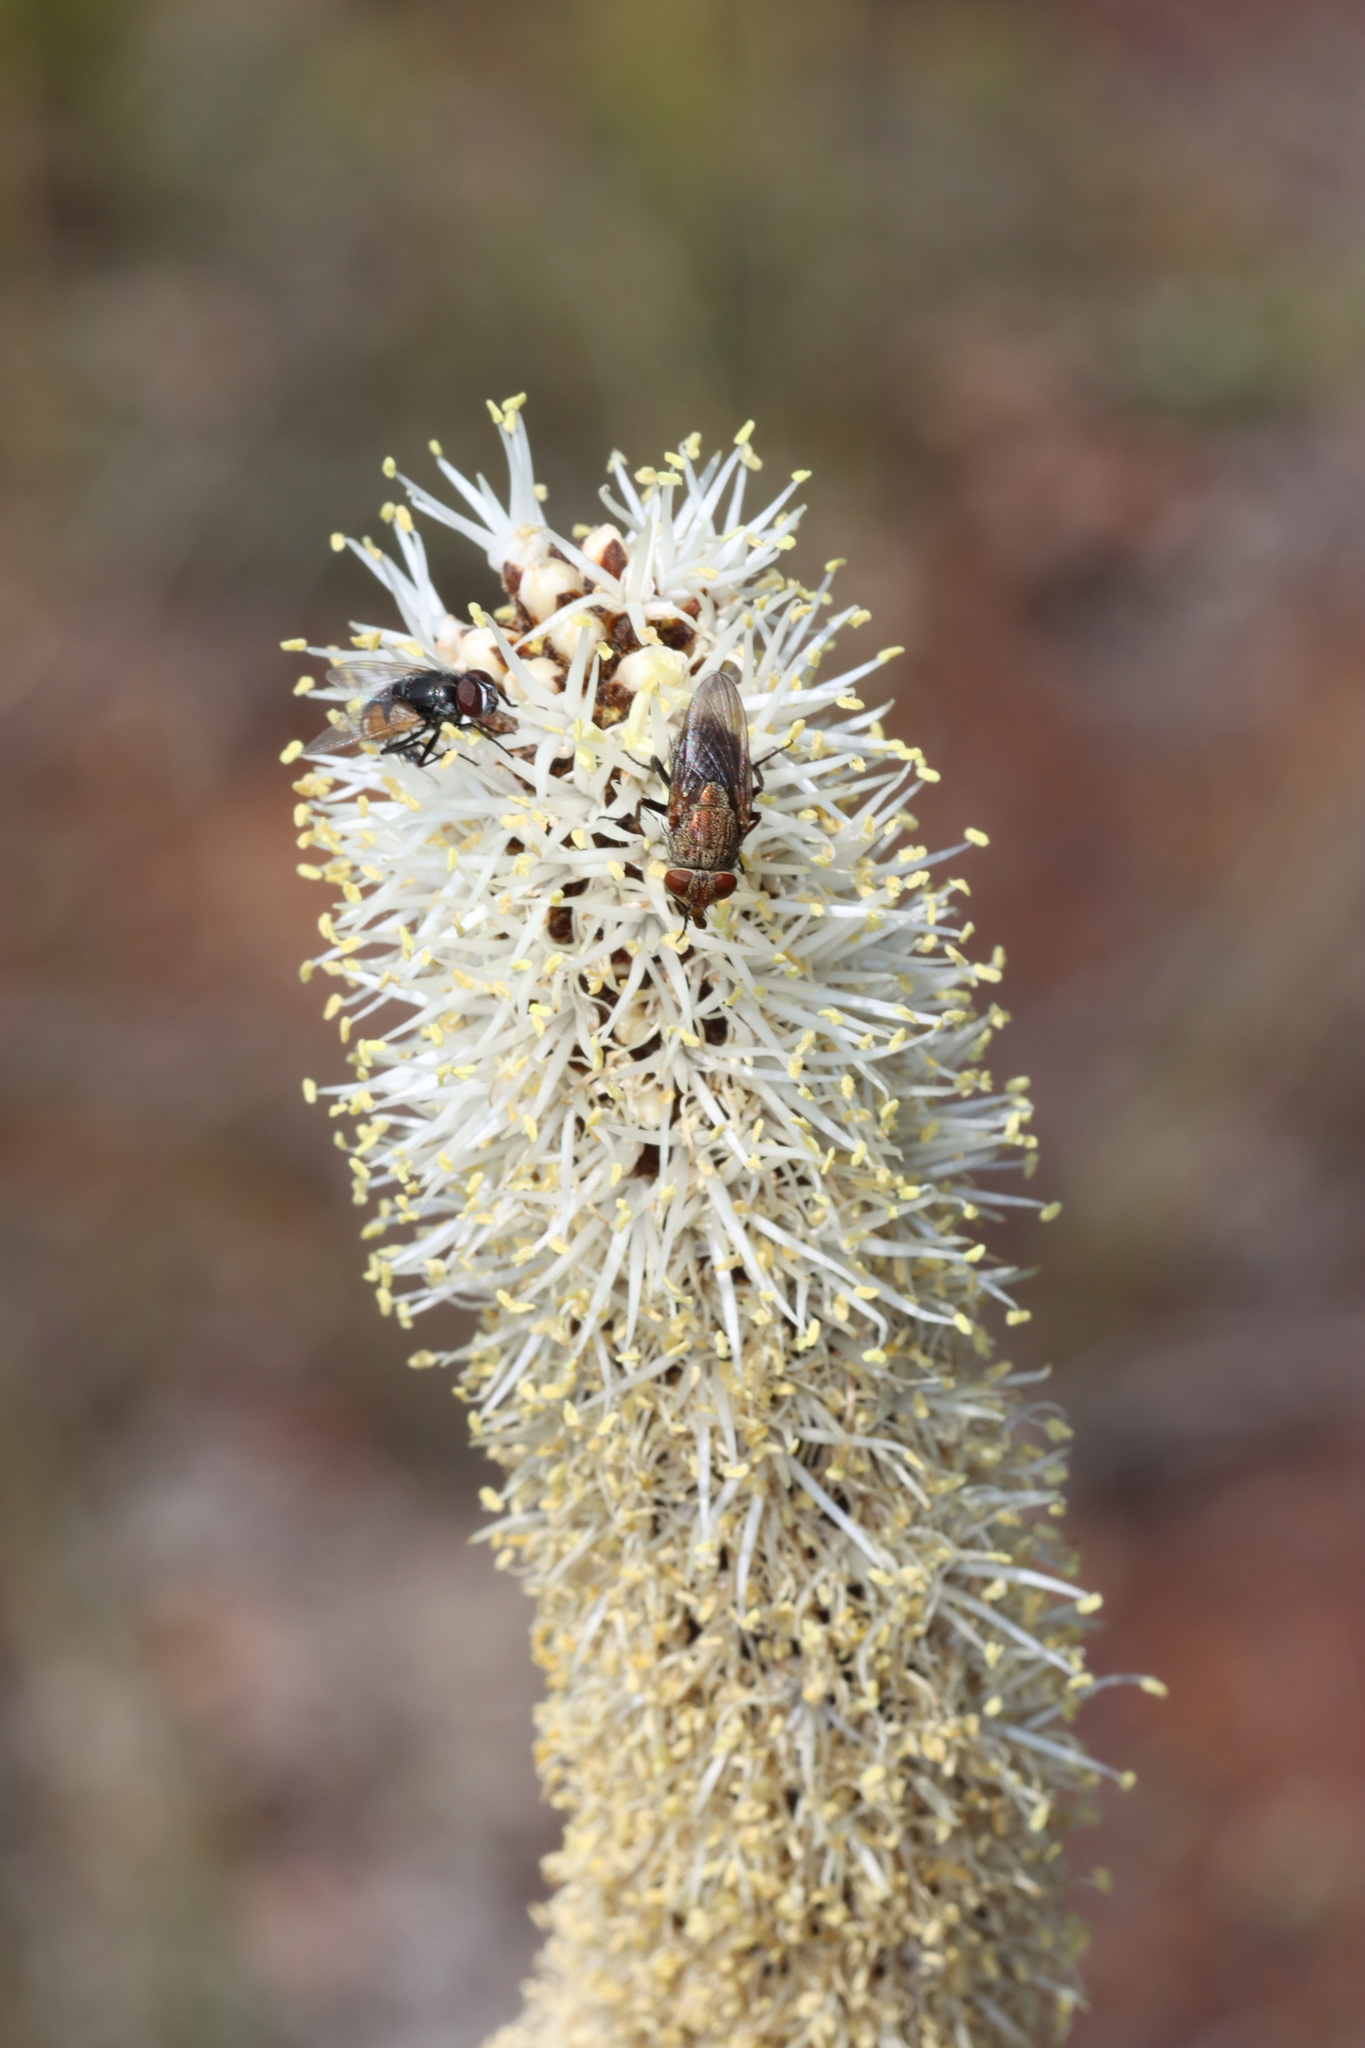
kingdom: Plantae
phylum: Tracheophyta
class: Liliopsida
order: Asparagales
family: Asphodelaceae
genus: Xanthorrhoea
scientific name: Xanthorrhoea gracilis
